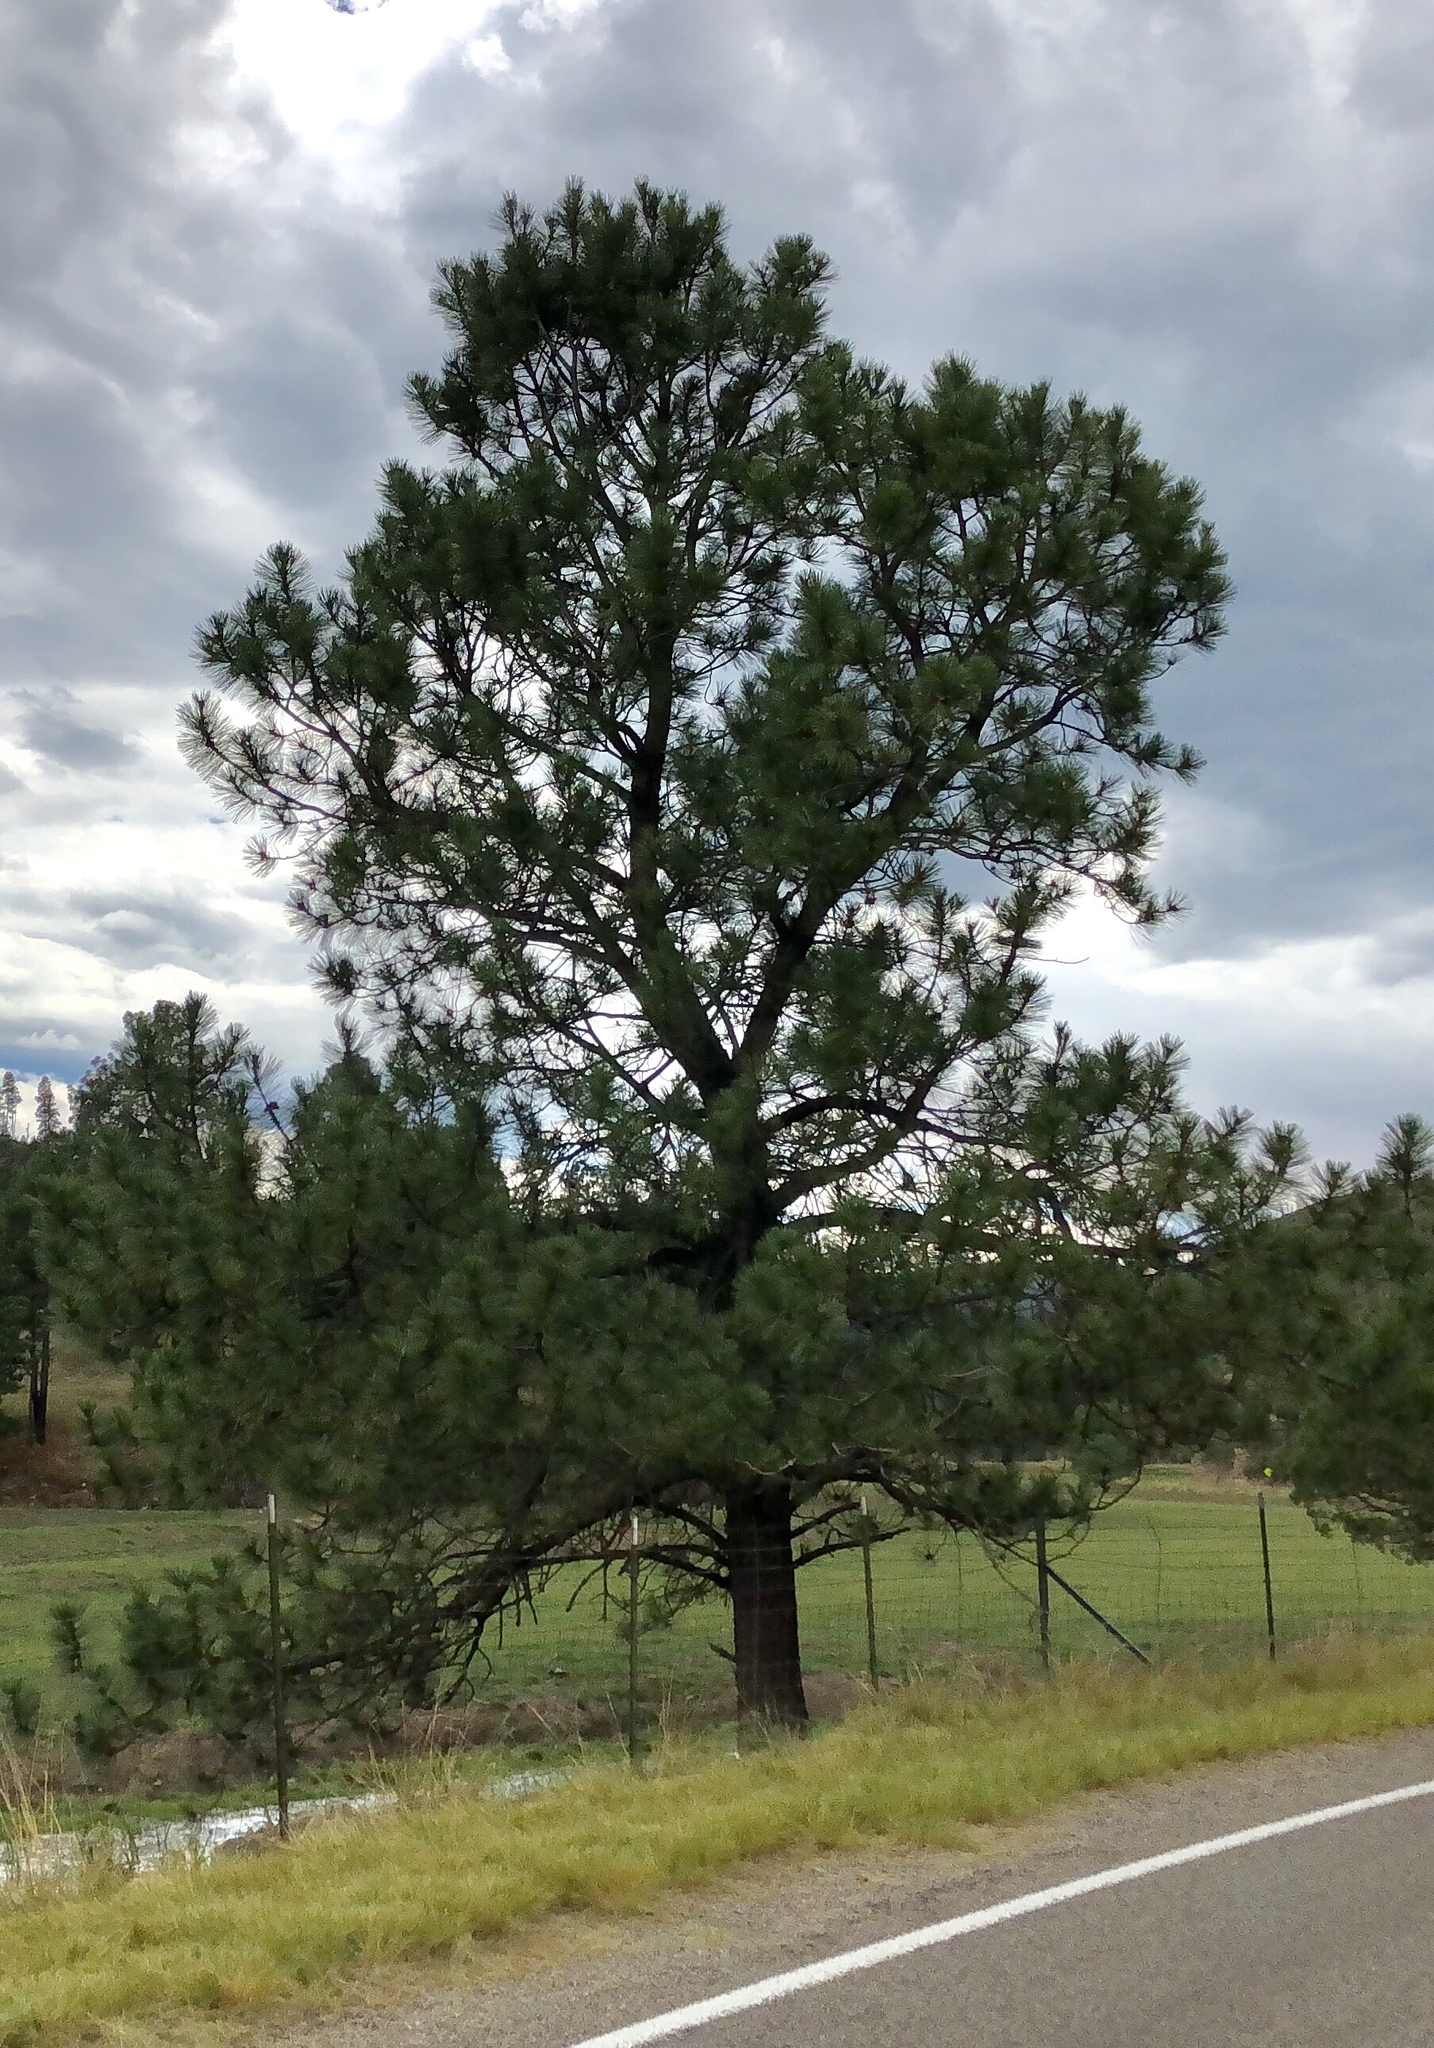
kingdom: Plantae
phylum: Tracheophyta
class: Pinopsida
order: Pinales
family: Pinaceae
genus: Pinus
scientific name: Pinus ponderosa
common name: Western yellow-pine
